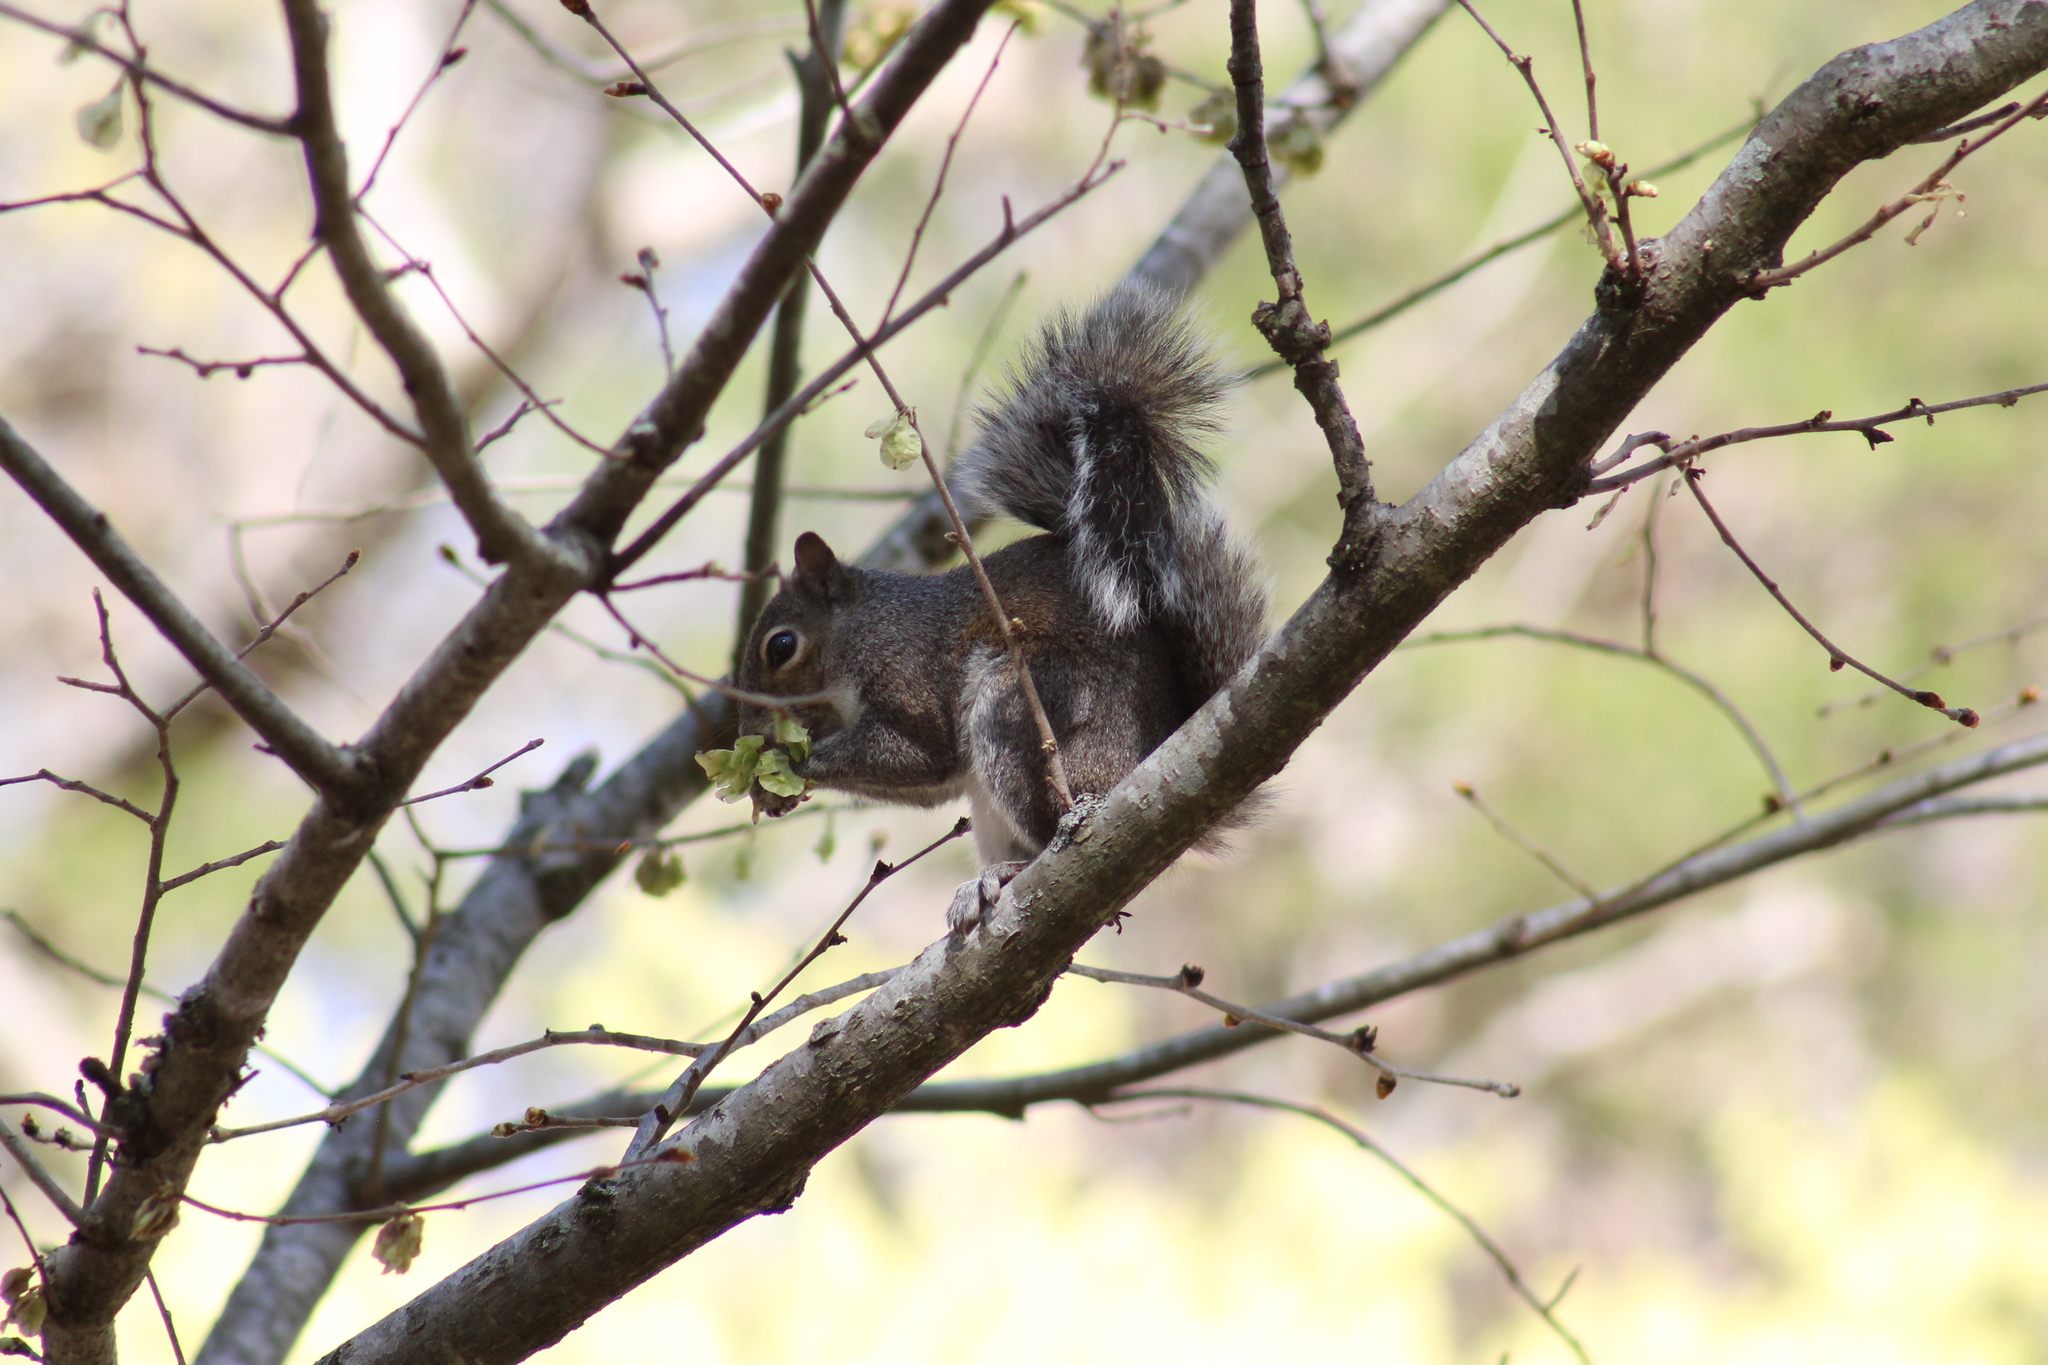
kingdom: Animalia
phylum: Chordata
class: Mammalia
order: Rodentia
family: Sciuridae
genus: Sciurus
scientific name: Sciurus carolinensis
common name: Eastern gray squirrel
